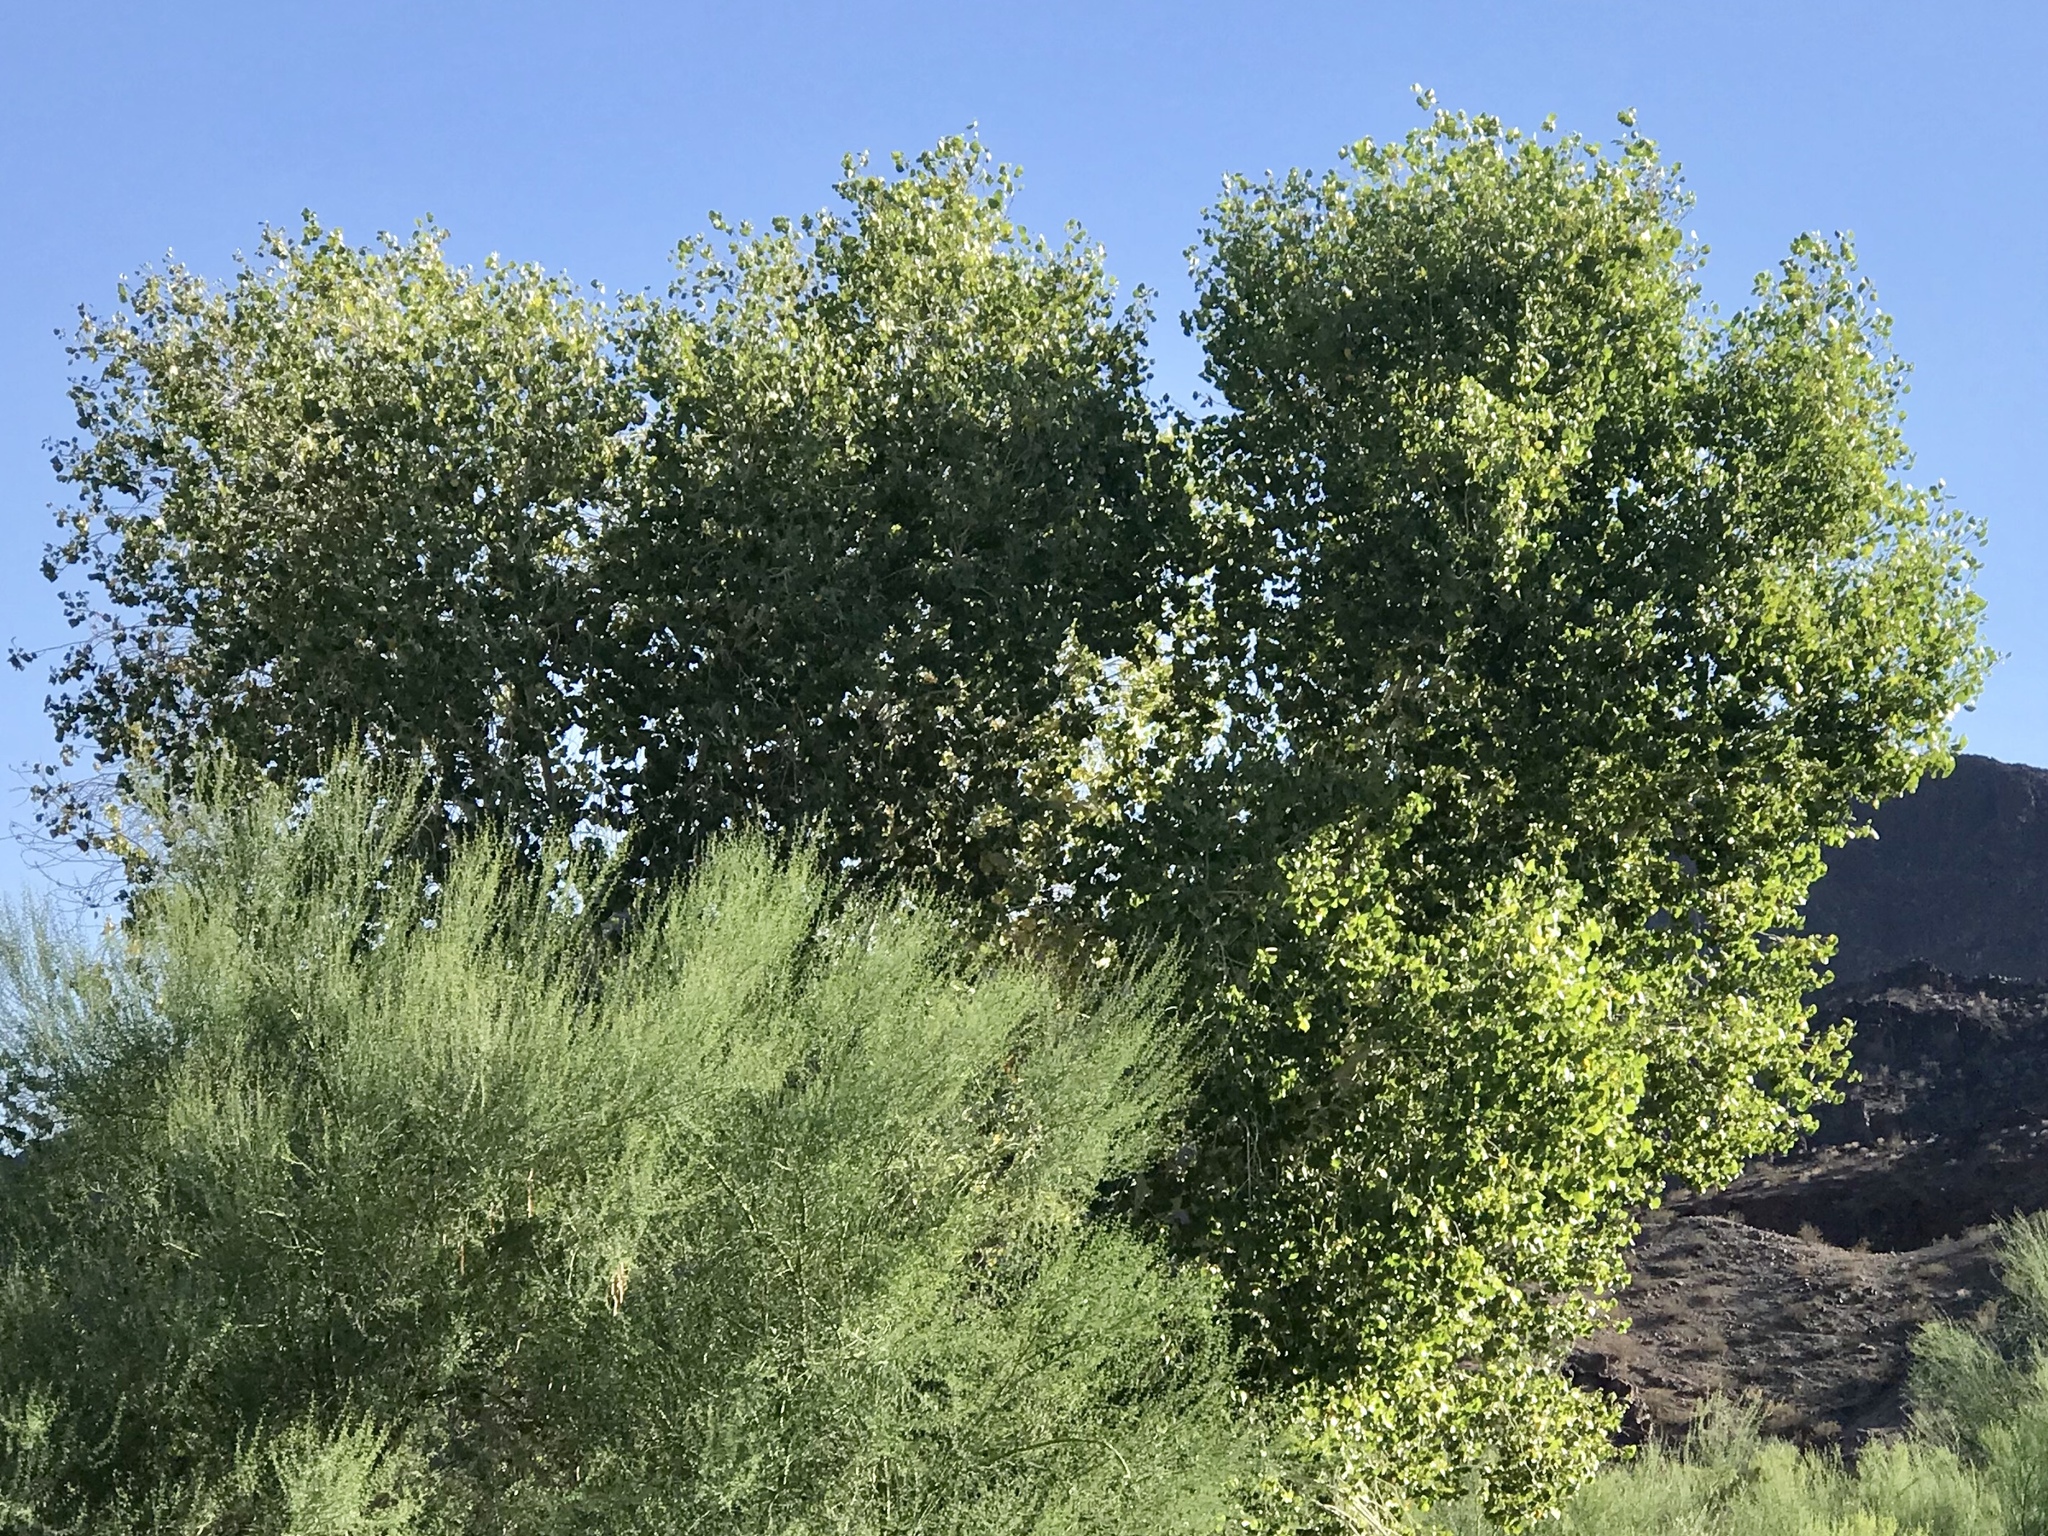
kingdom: Plantae
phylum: Tracheophyta
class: Magnoliopsida
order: Malpighiales
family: Salicaceae
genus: Populus
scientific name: Populus fremontii
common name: Fremont's cottonwood
